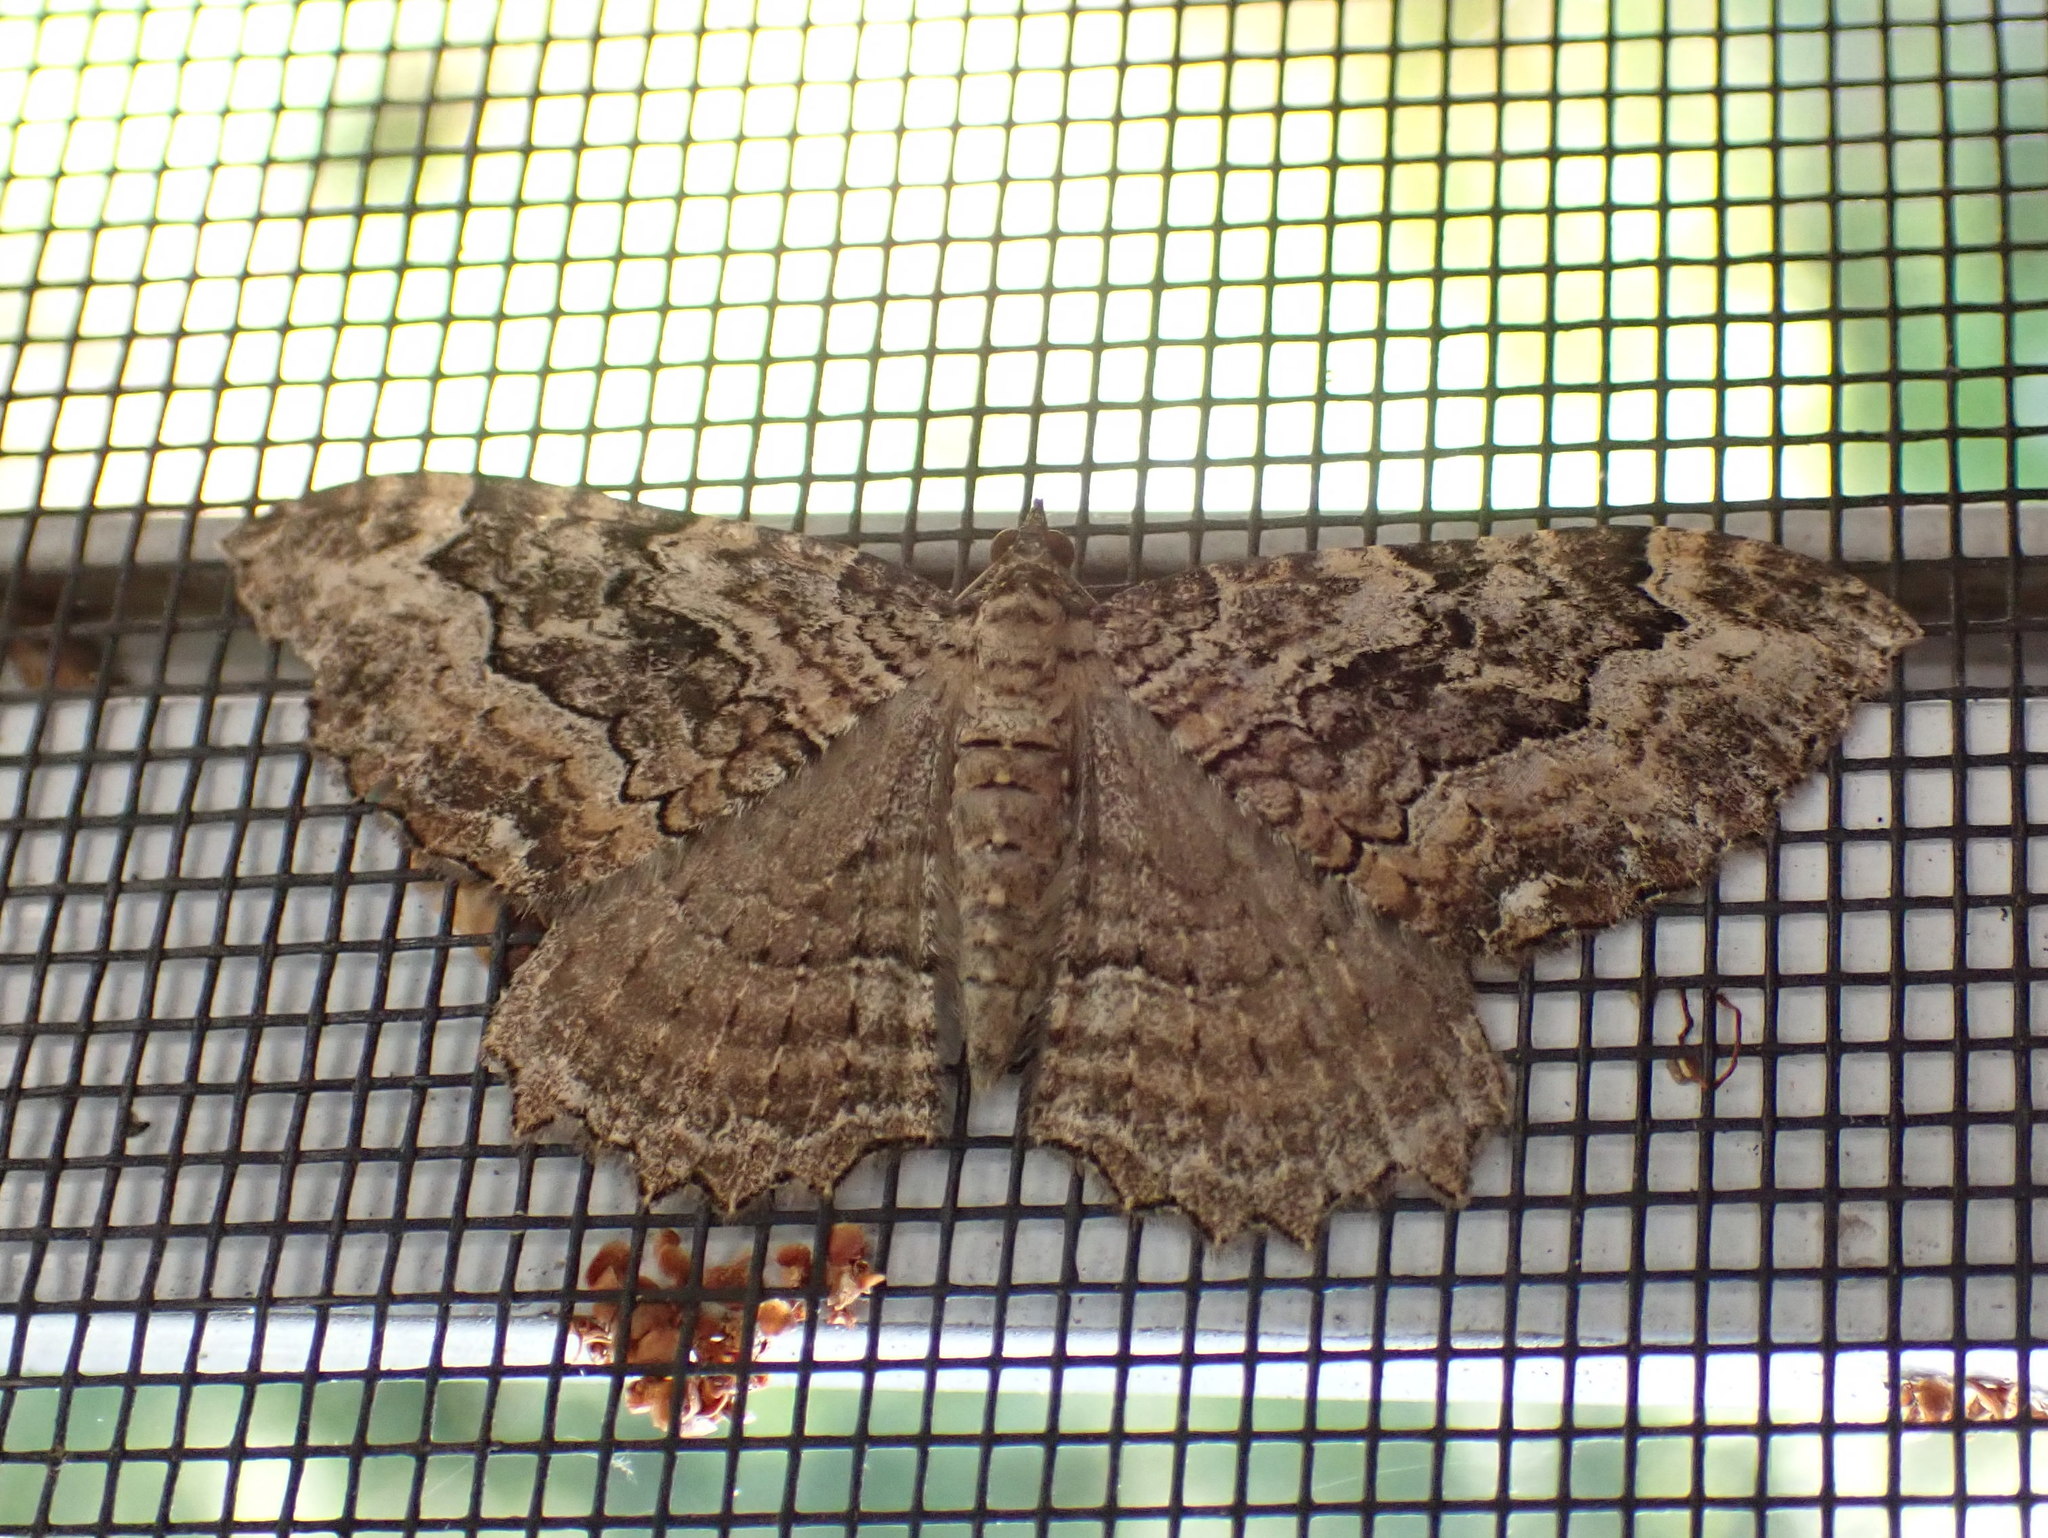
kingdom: Animalia
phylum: Arthropoda
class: Insecta
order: Lepidoptera
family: Geometridae
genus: Rheumaptera
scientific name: Rheumaptera
